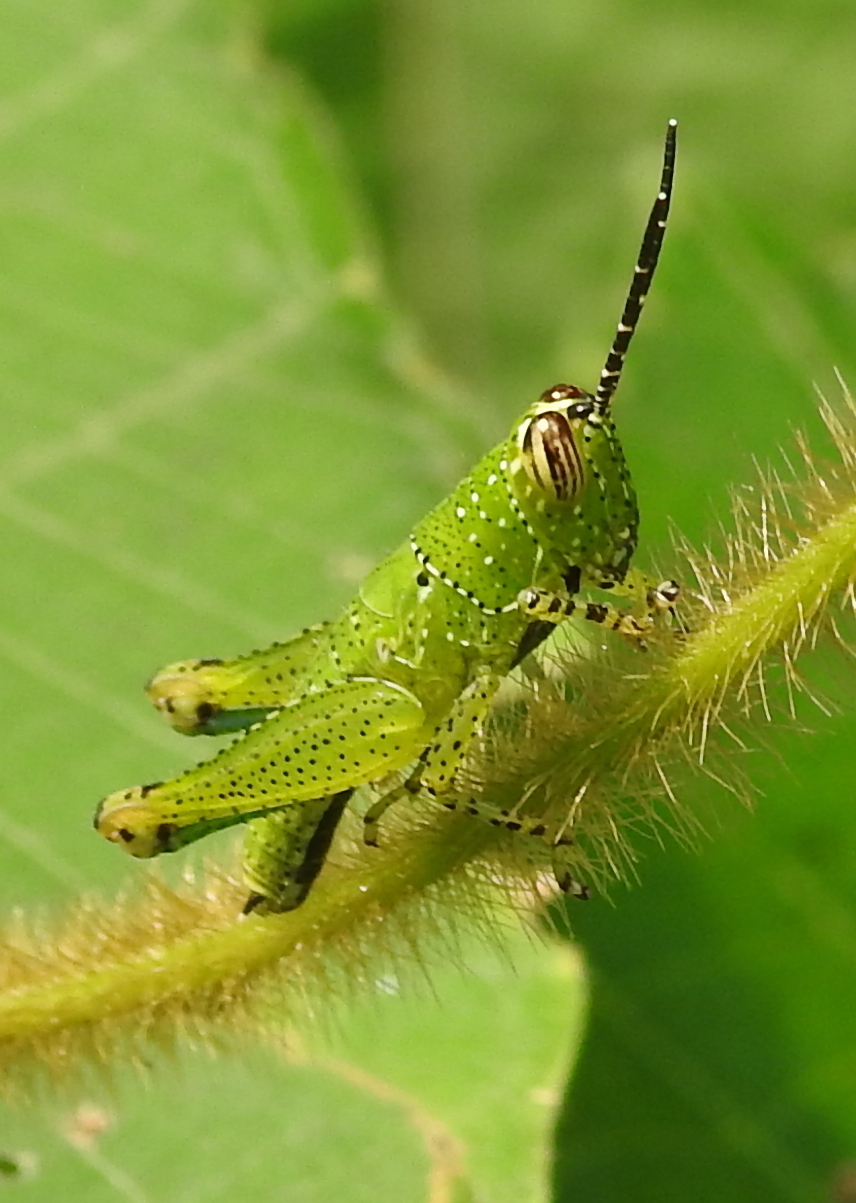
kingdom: Animalia
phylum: Arthropoda
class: Insecta
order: Orthoptera
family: Acrididae
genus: Xenocatantops
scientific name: Xenocatantops humile
